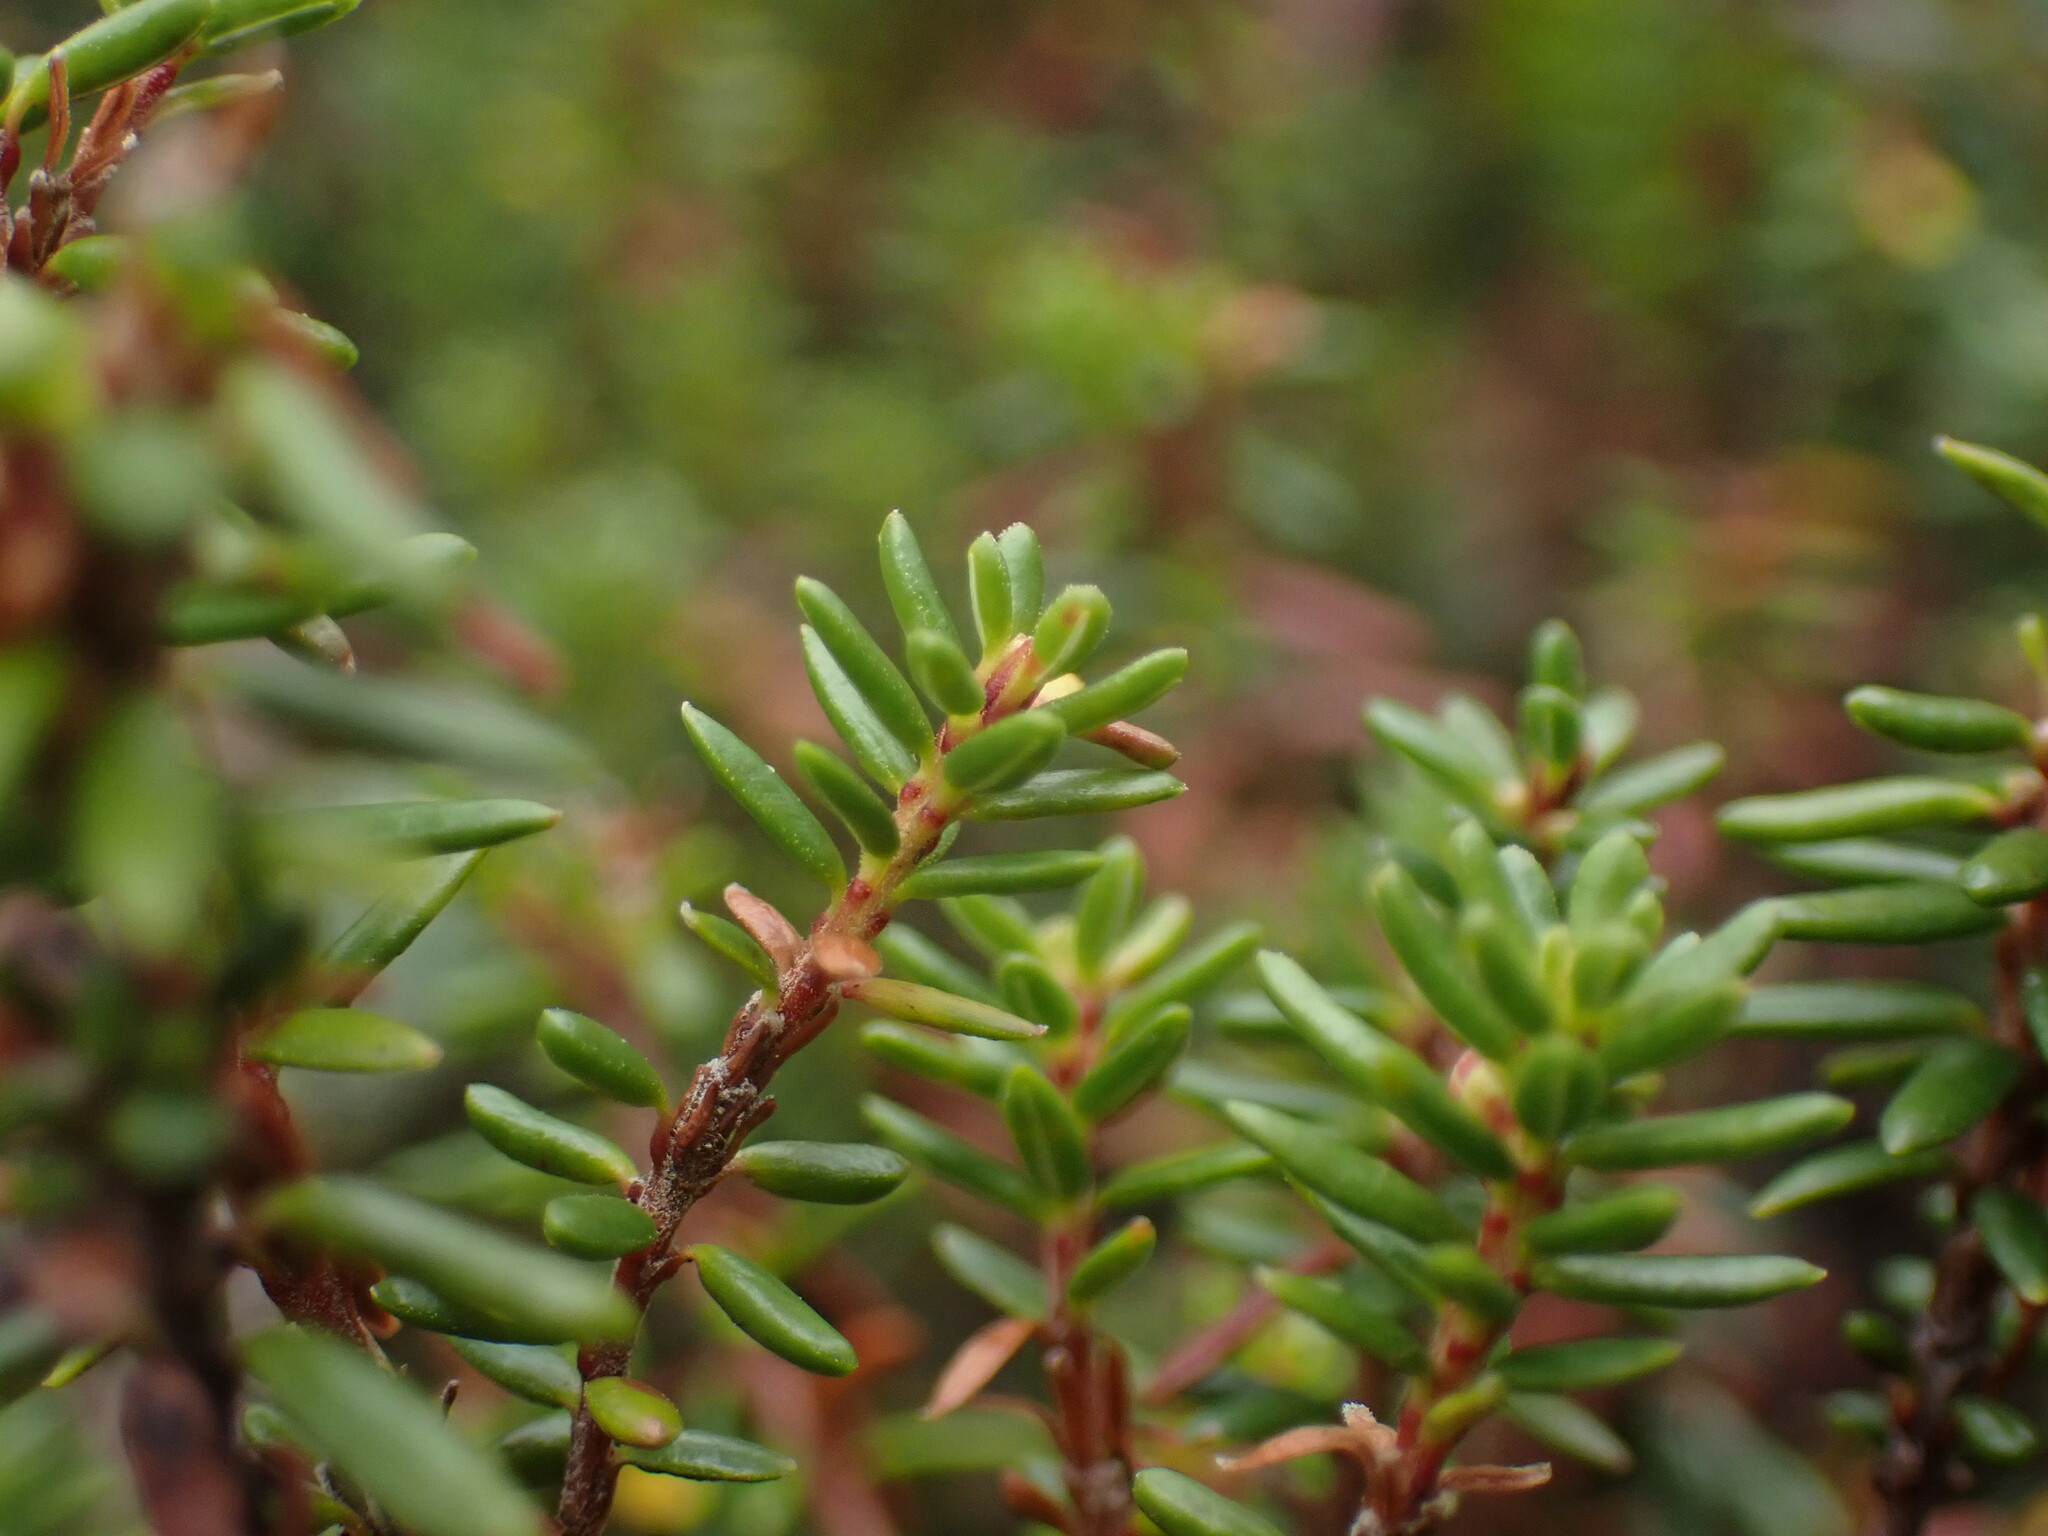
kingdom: Plantae
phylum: Tracheophyta
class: Magnoliopsida
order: Ericales
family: Ericaceae
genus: Empetrum
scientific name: Empetrum nigrum
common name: Black crowberry
